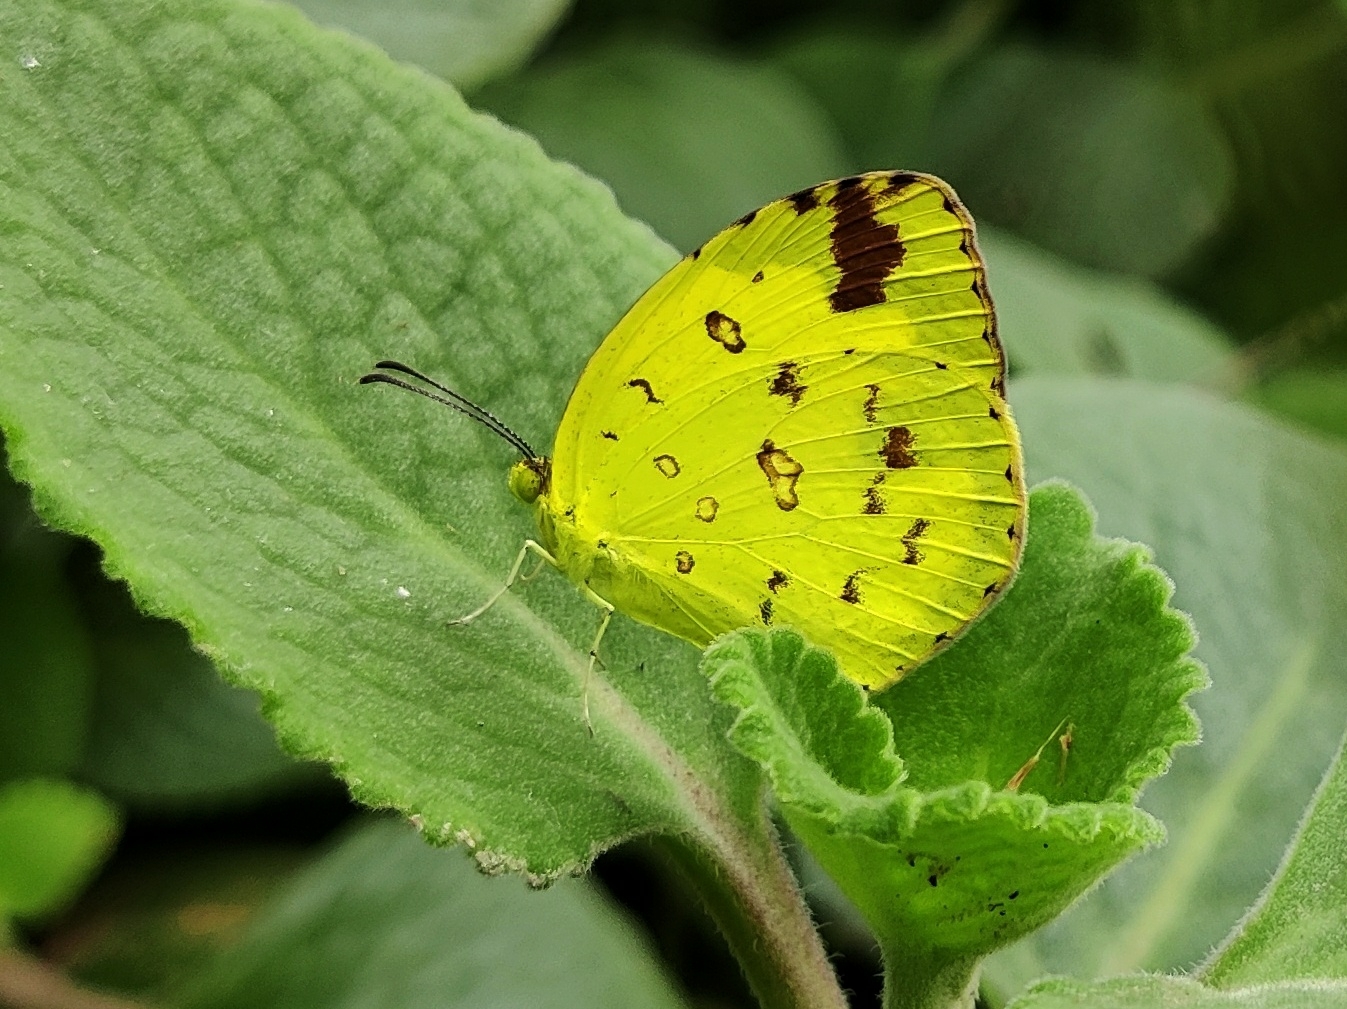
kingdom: Animalia
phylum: Arthropoda
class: Insecta
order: Lepidoptera
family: Pieridae
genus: Eurema
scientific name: Eurema hecabe
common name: Pale grass yellow
